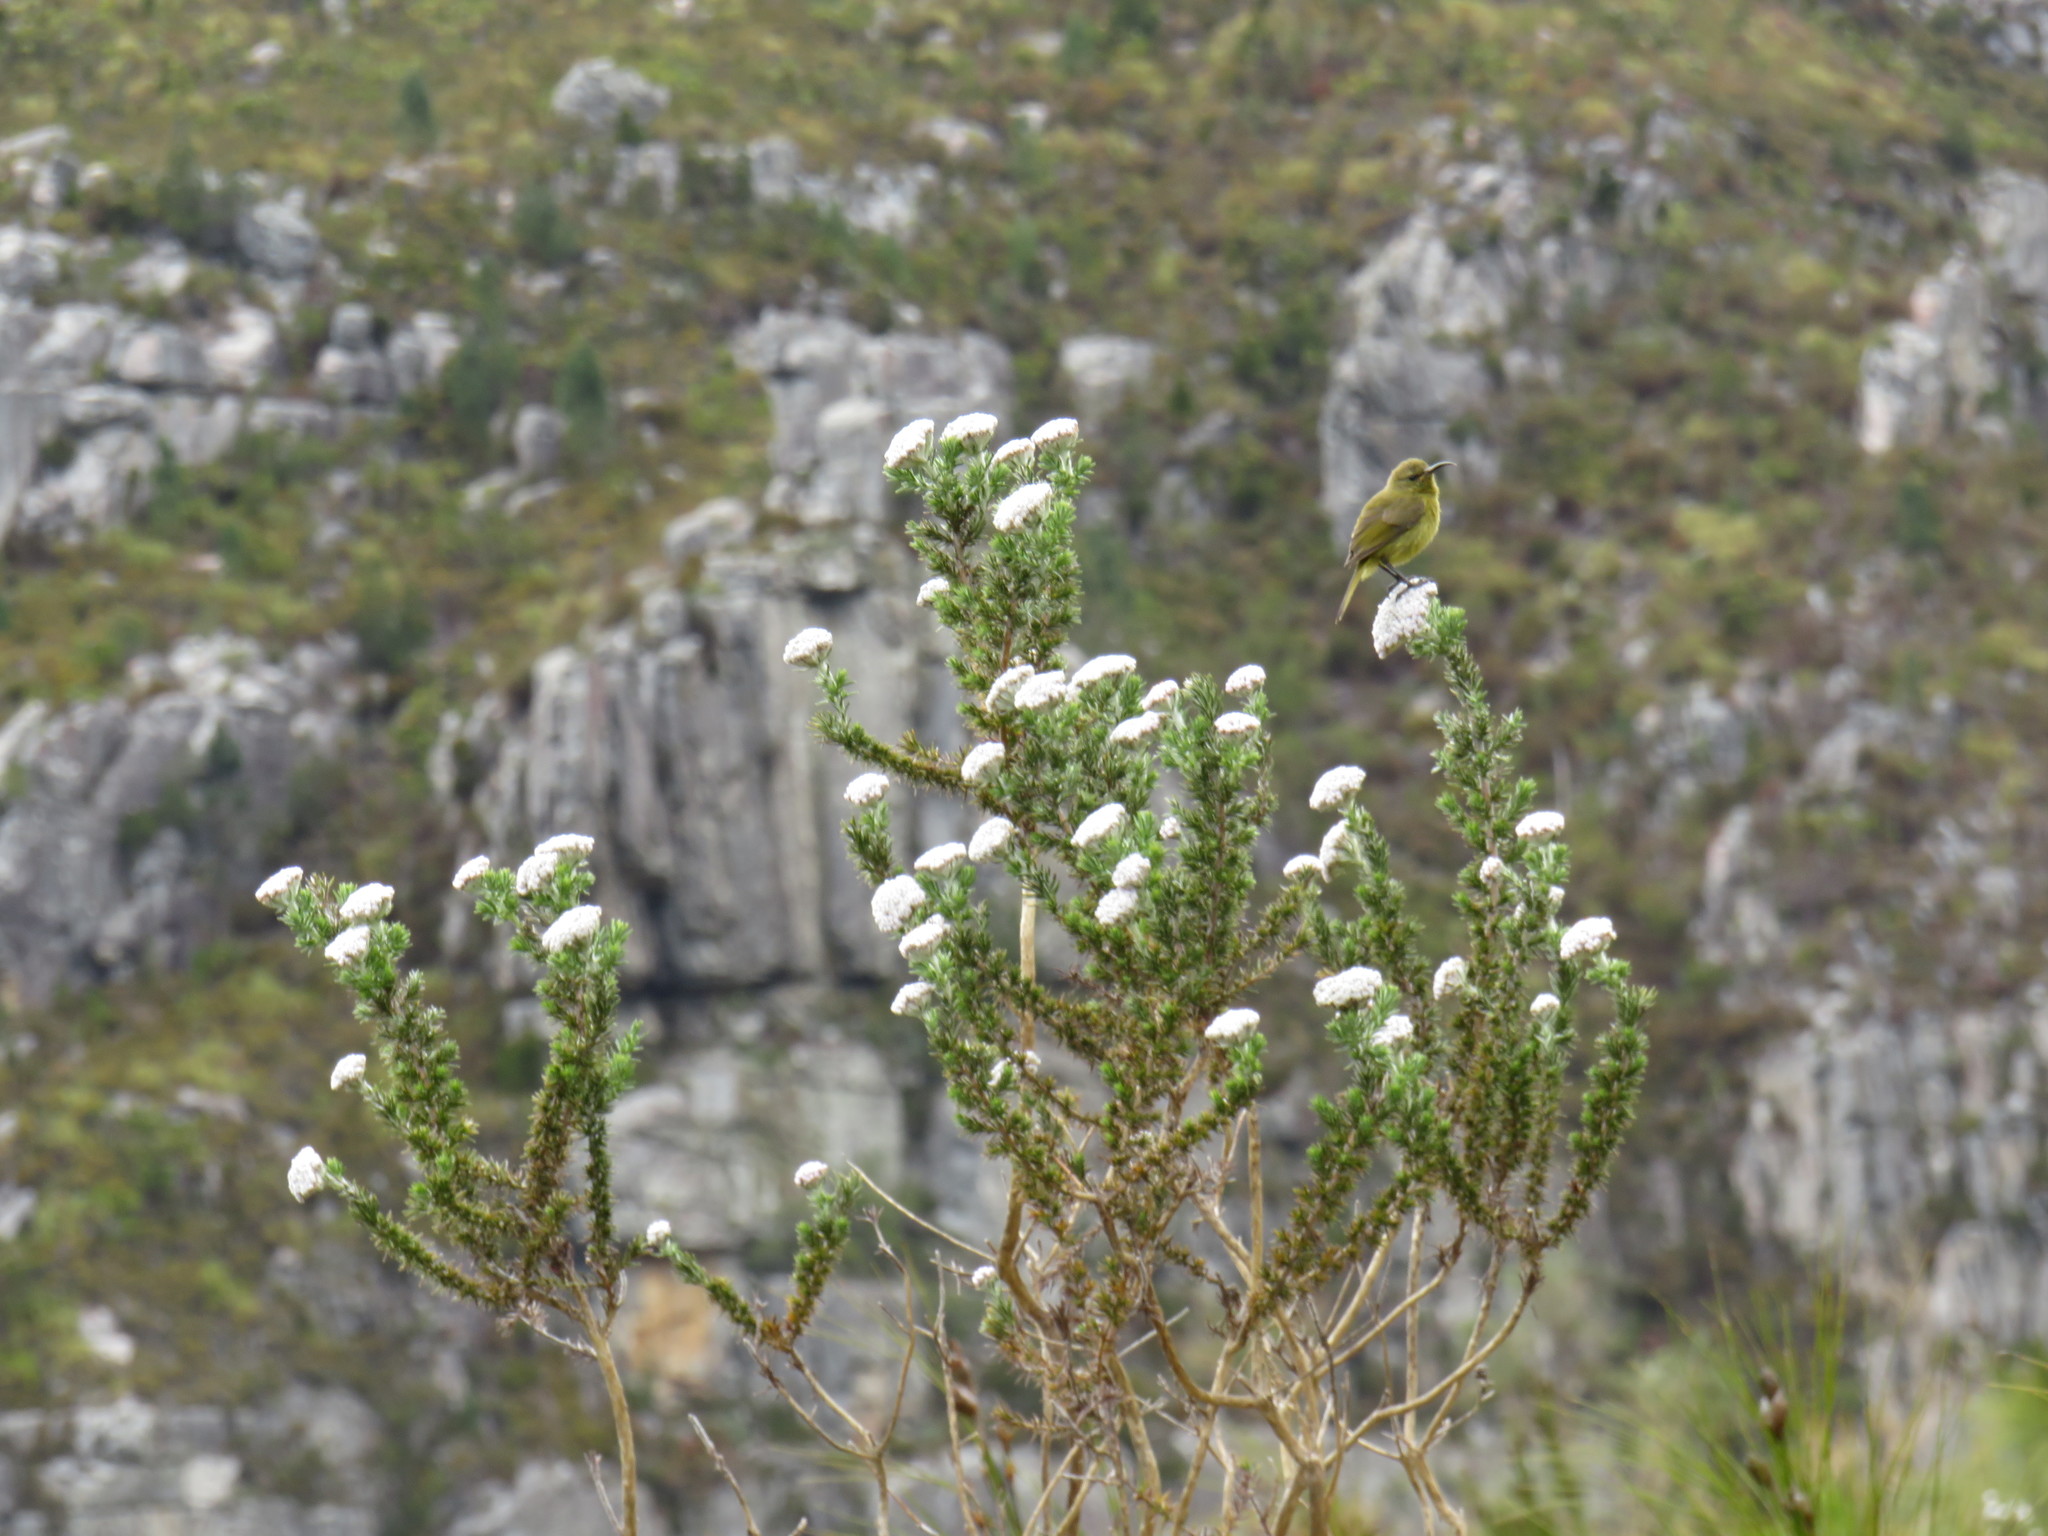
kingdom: Animalia
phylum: Chordata
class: Aves
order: Passeriformes
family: Nectariniidae
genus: Anthobaphes
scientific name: Anthobaphes violacea
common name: Orange-breasted sunbird
